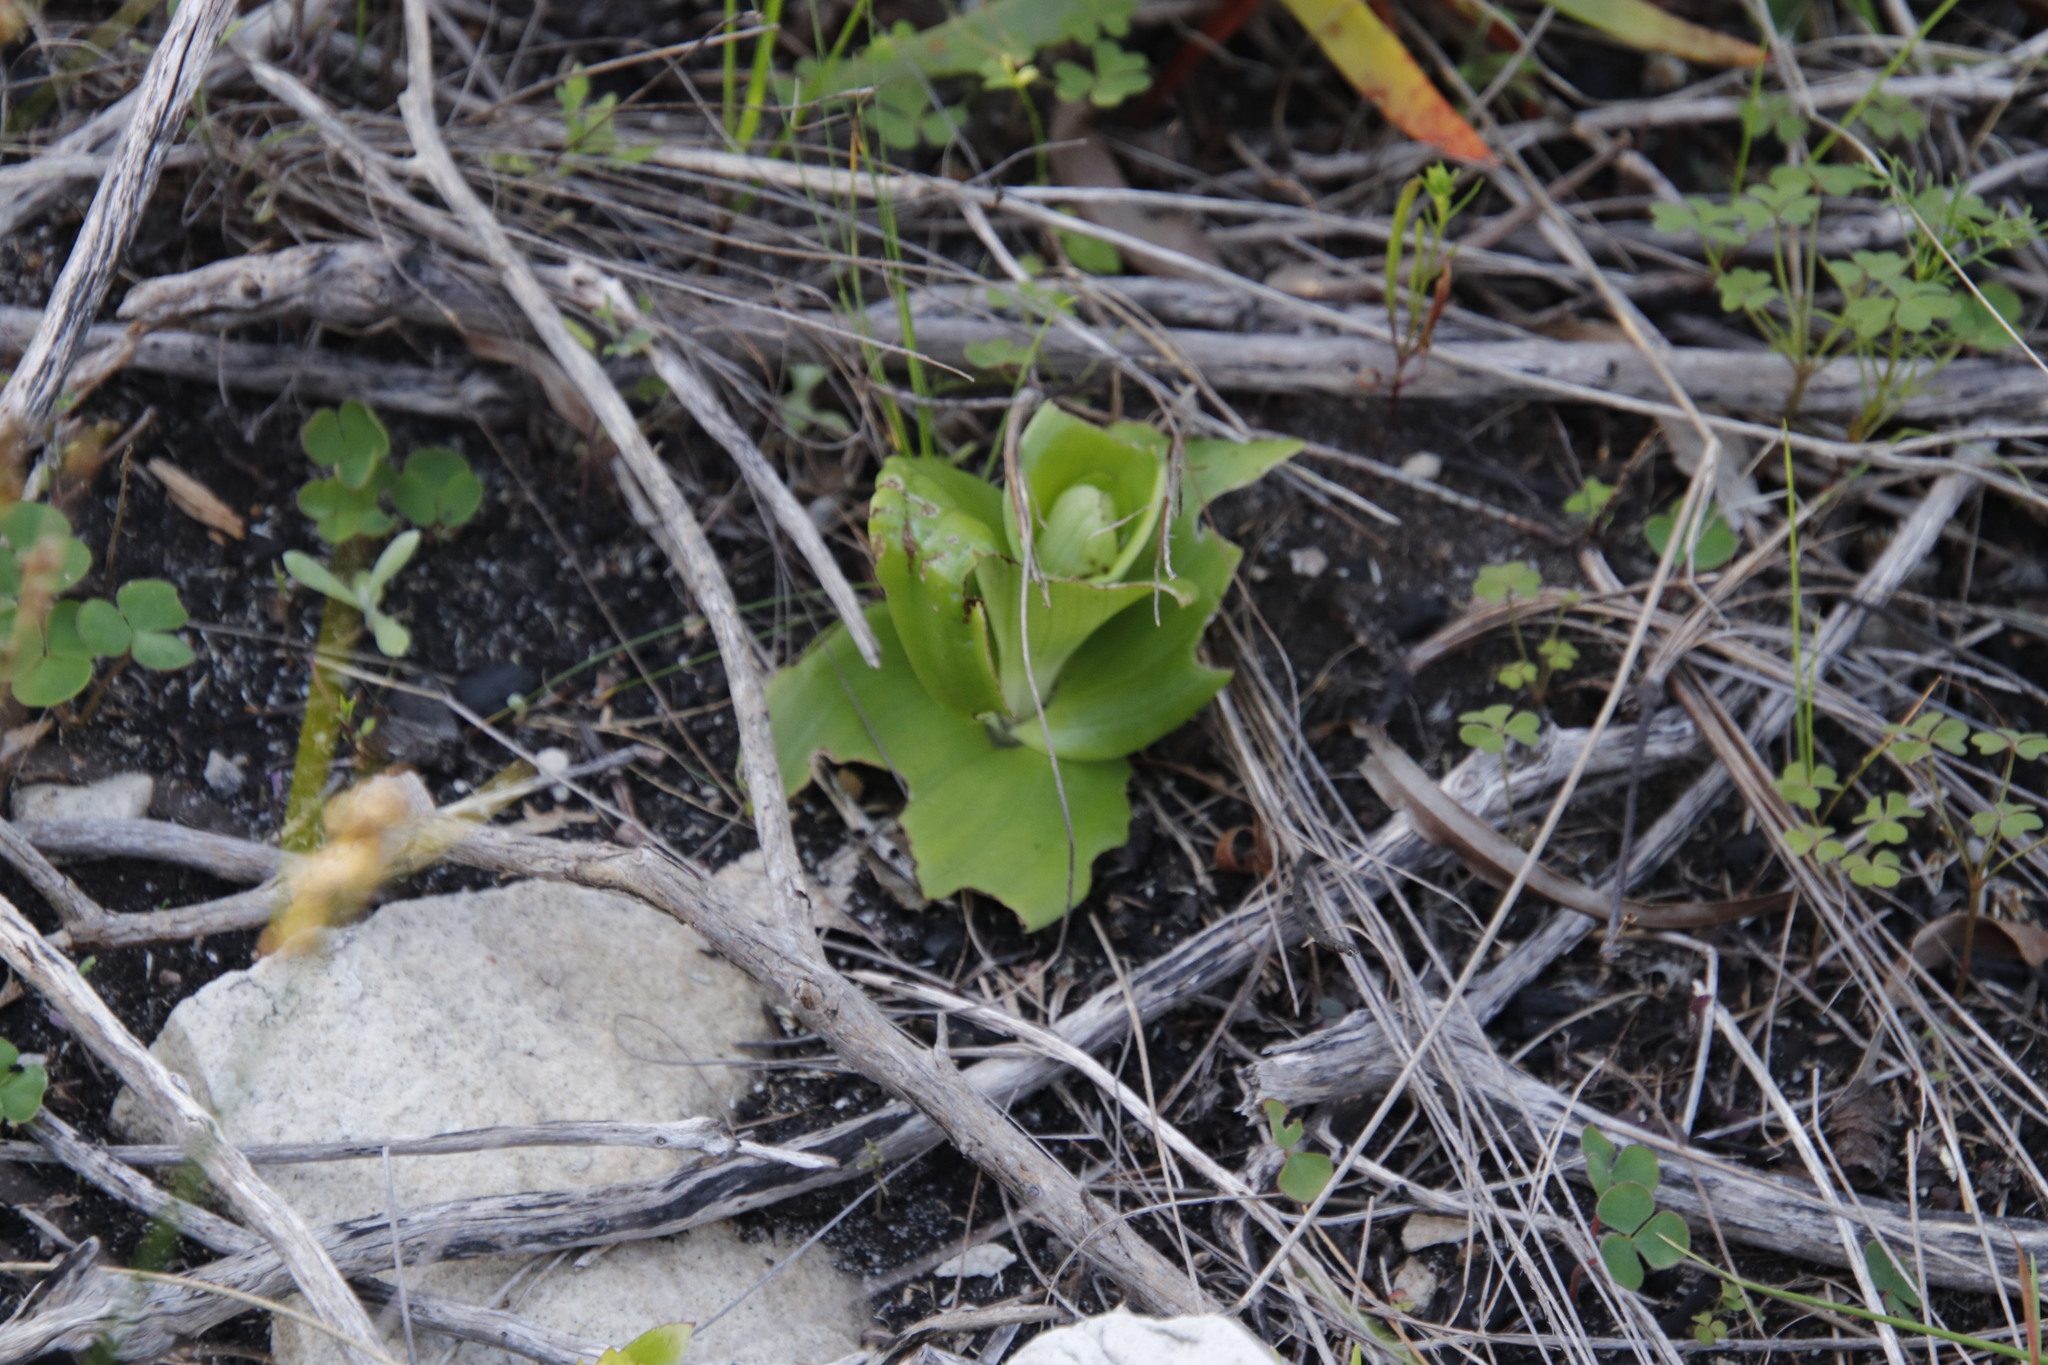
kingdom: Plantae
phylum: Tracheophyta
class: Liliopsida
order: Asparagales
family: Orchidaceae
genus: Satyrium
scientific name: Satyrium odorum
